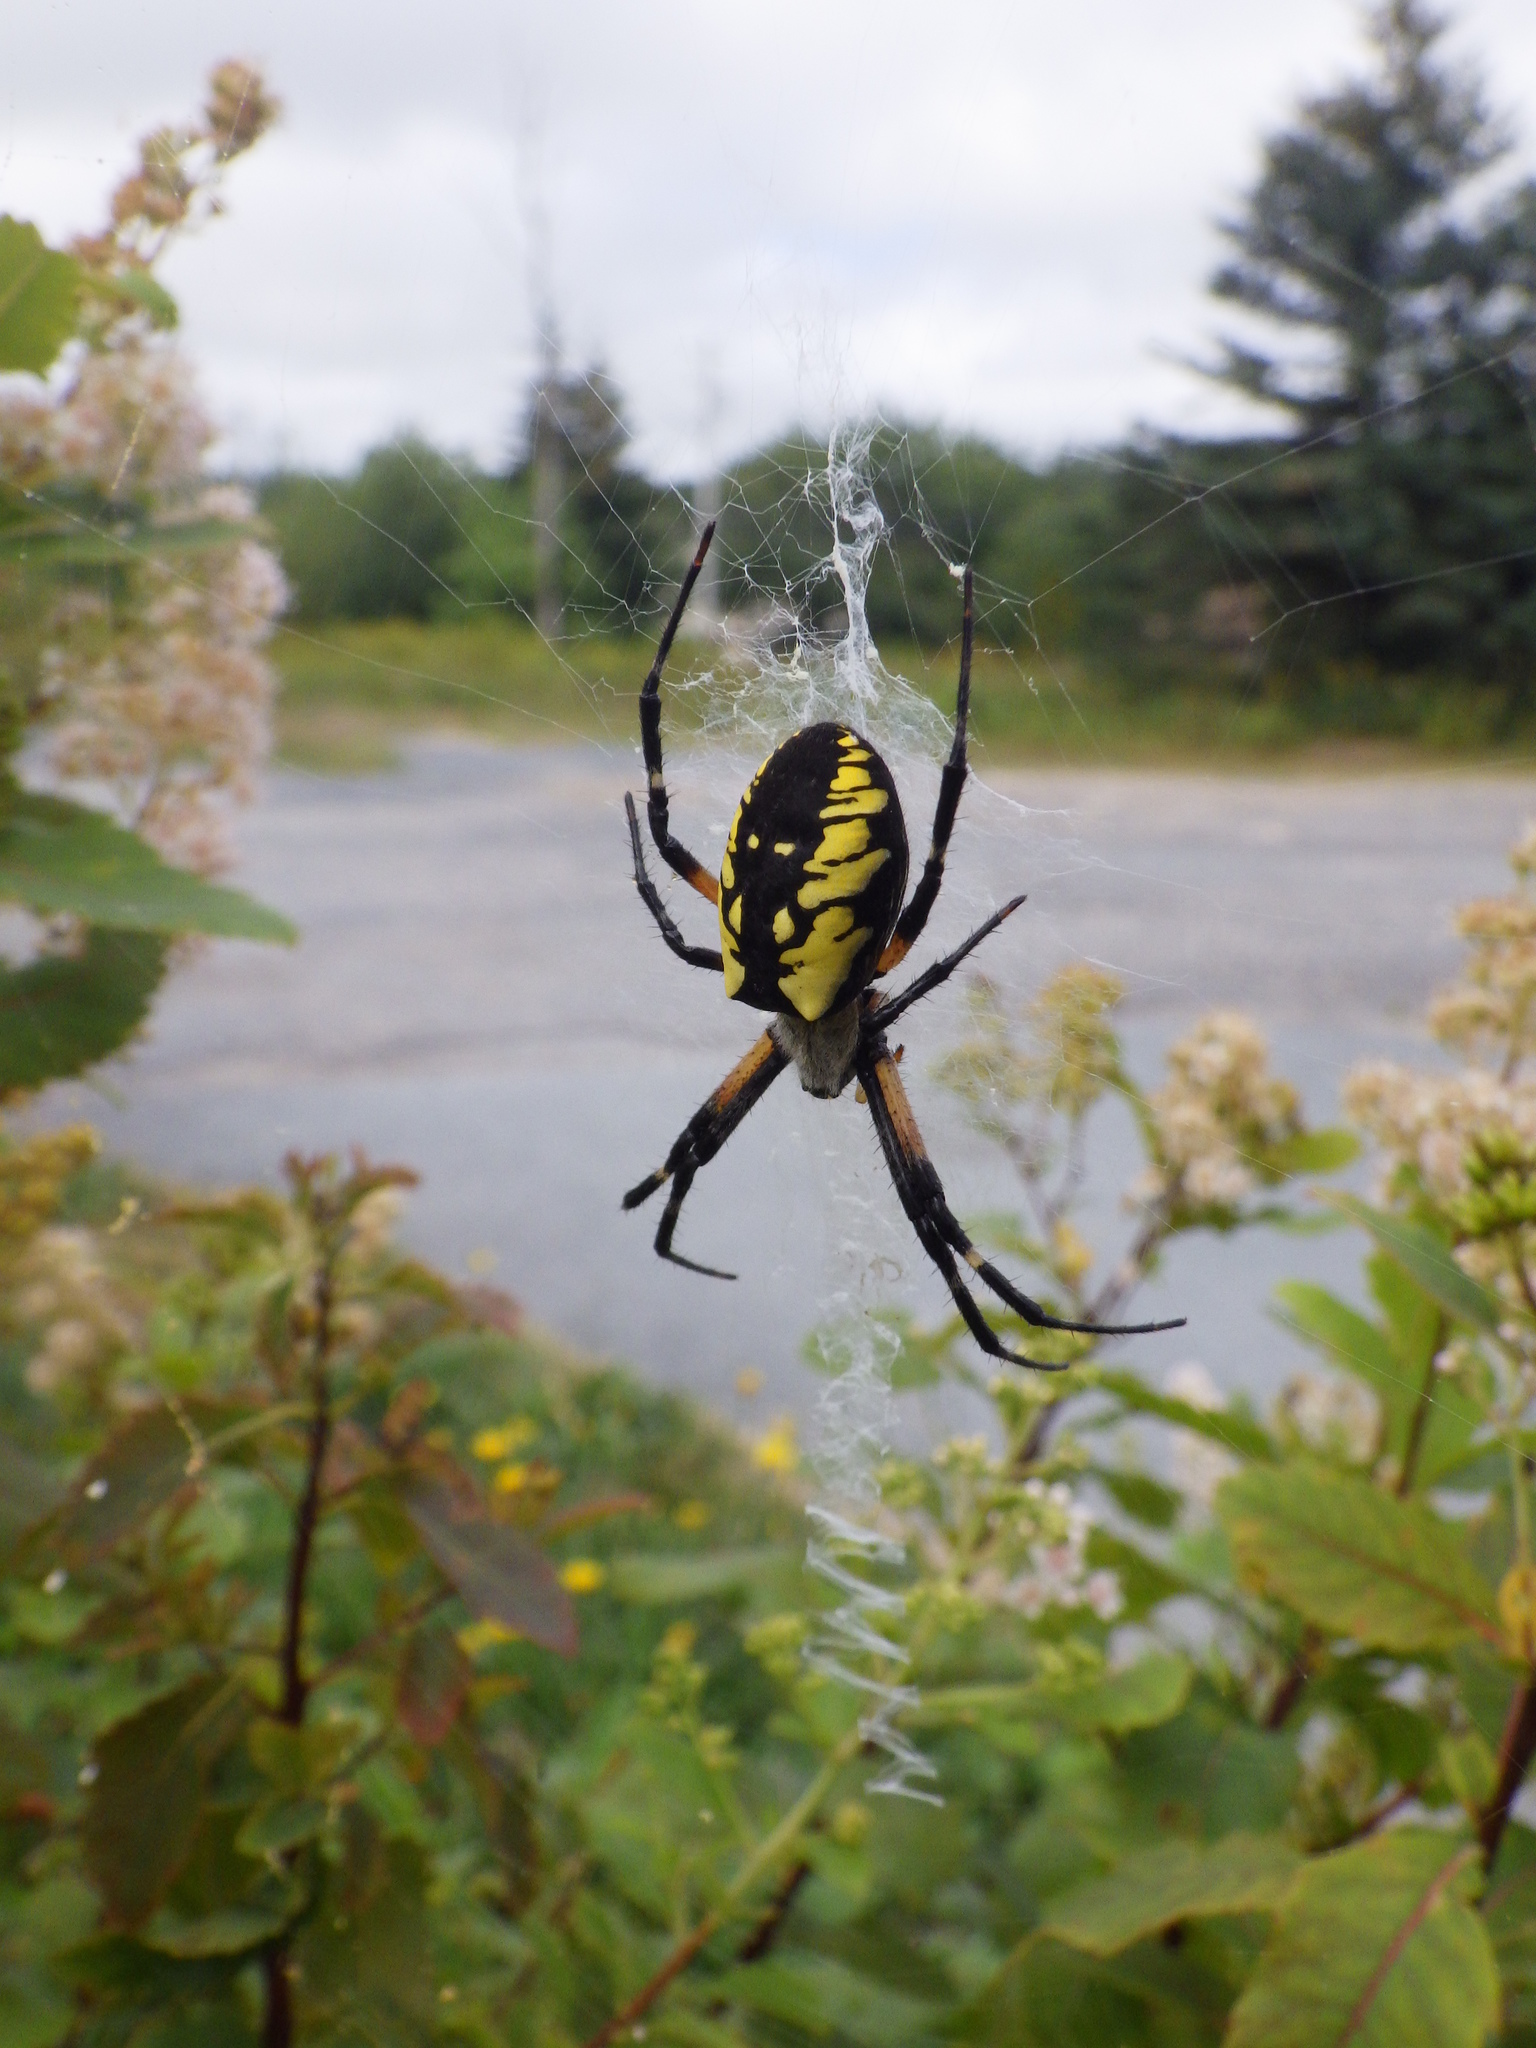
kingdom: Animalia
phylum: Arthropoda
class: Arachnida
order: Araneae
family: Araneidae
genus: Argiope
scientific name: Argiope aurantia
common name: Orb weavers
